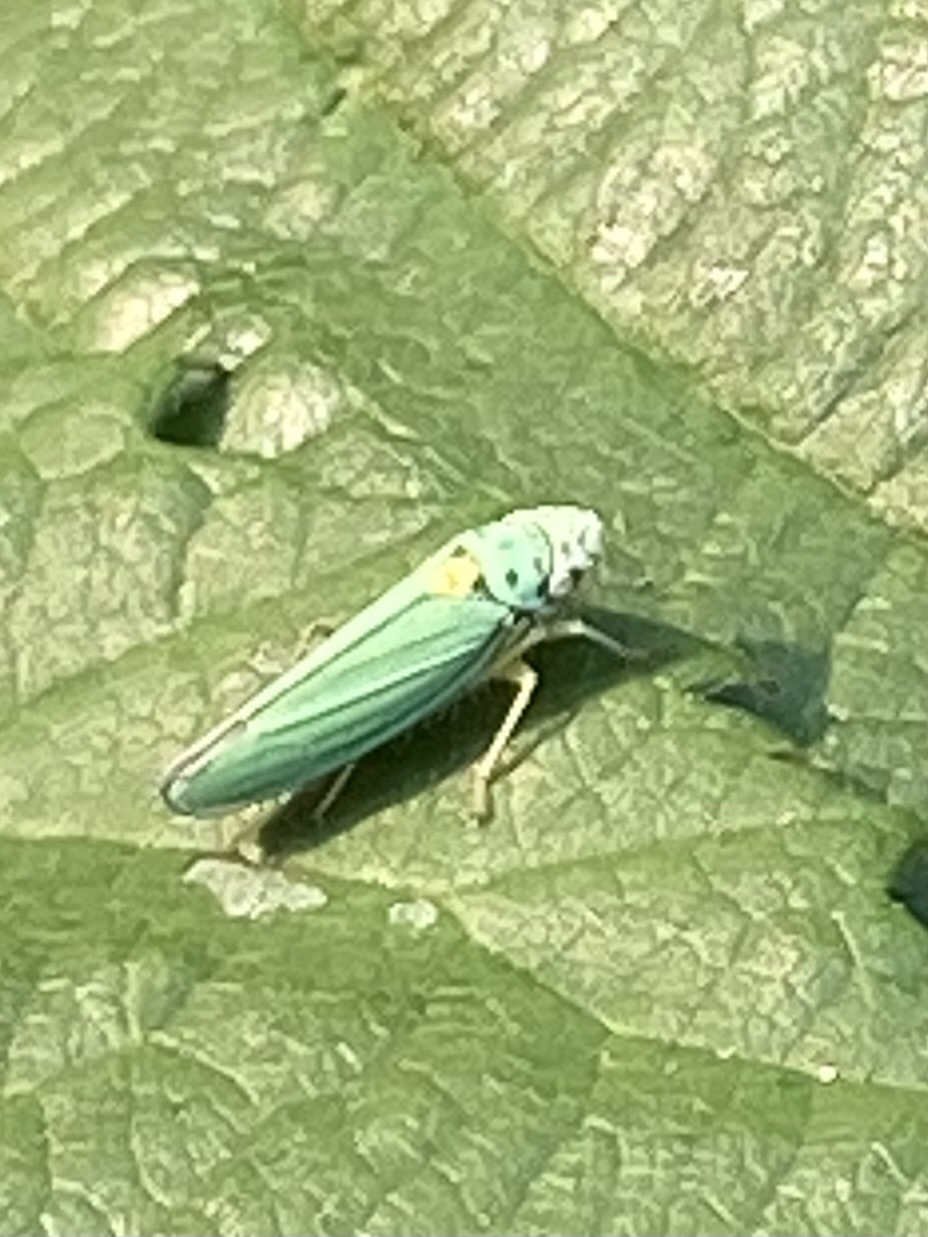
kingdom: Animalia
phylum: Arthropoda
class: Insecta
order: Hemiptera
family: Cicadellidae
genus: Graphocephala
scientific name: Graphocephala atropunctata
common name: Blue-green sharpshooter
